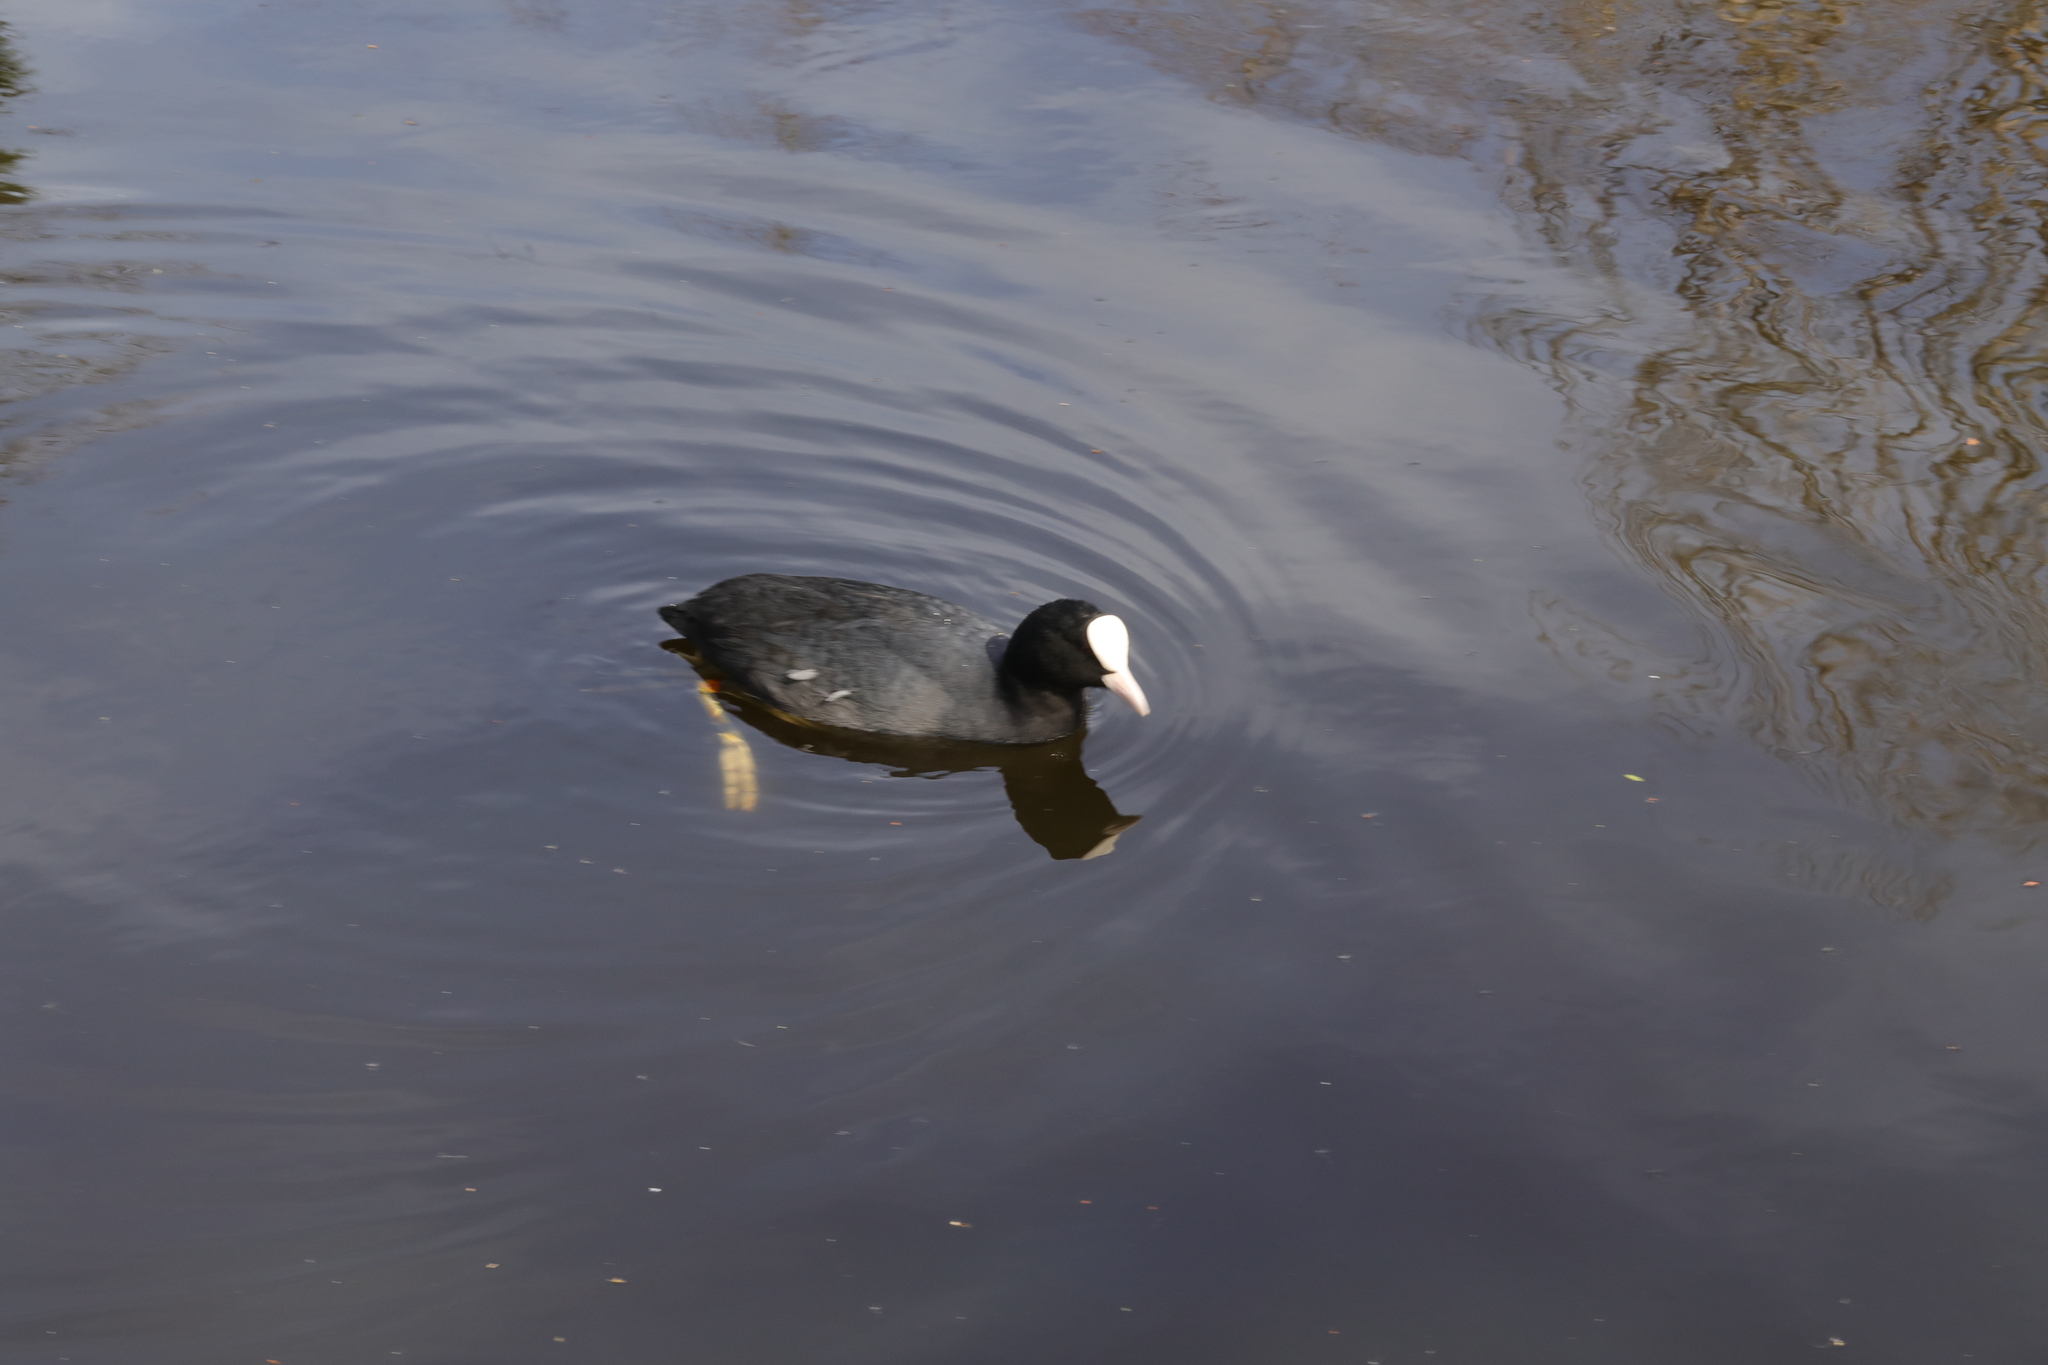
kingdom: Animalia
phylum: Chordata
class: Aves
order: Gruiformes
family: Rallidae
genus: Fulica
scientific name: Fulica atra
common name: Eurasian coot
